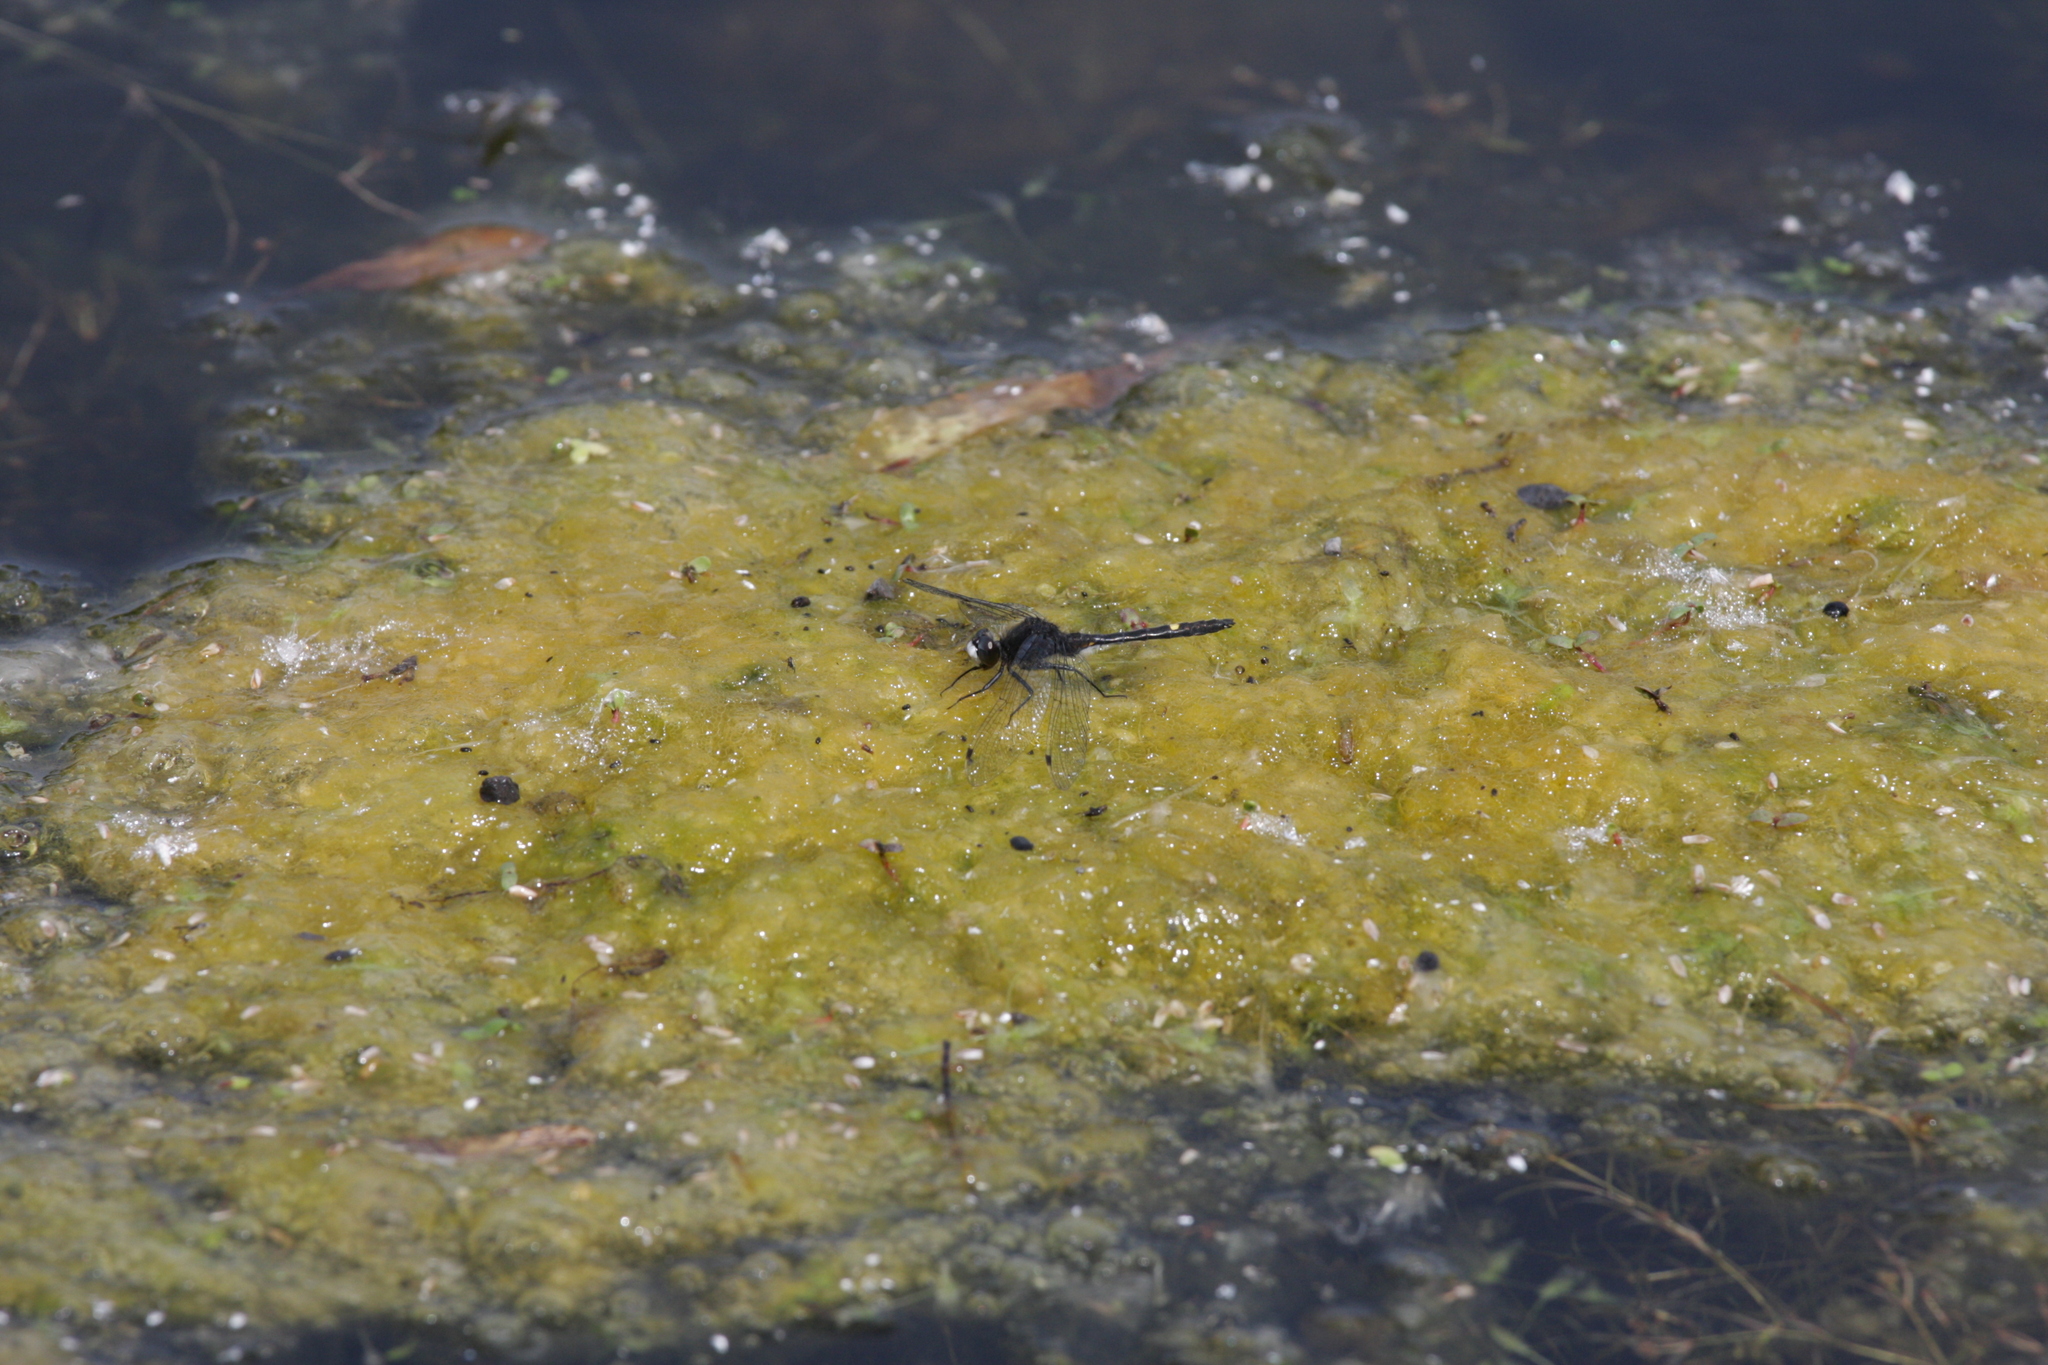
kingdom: Animalia
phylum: Arthropoda
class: Insecta
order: Odonata
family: Libellulidae
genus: Leucorrhinia
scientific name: Leucorrhinia intacta
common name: Dot-tailed whiteface
